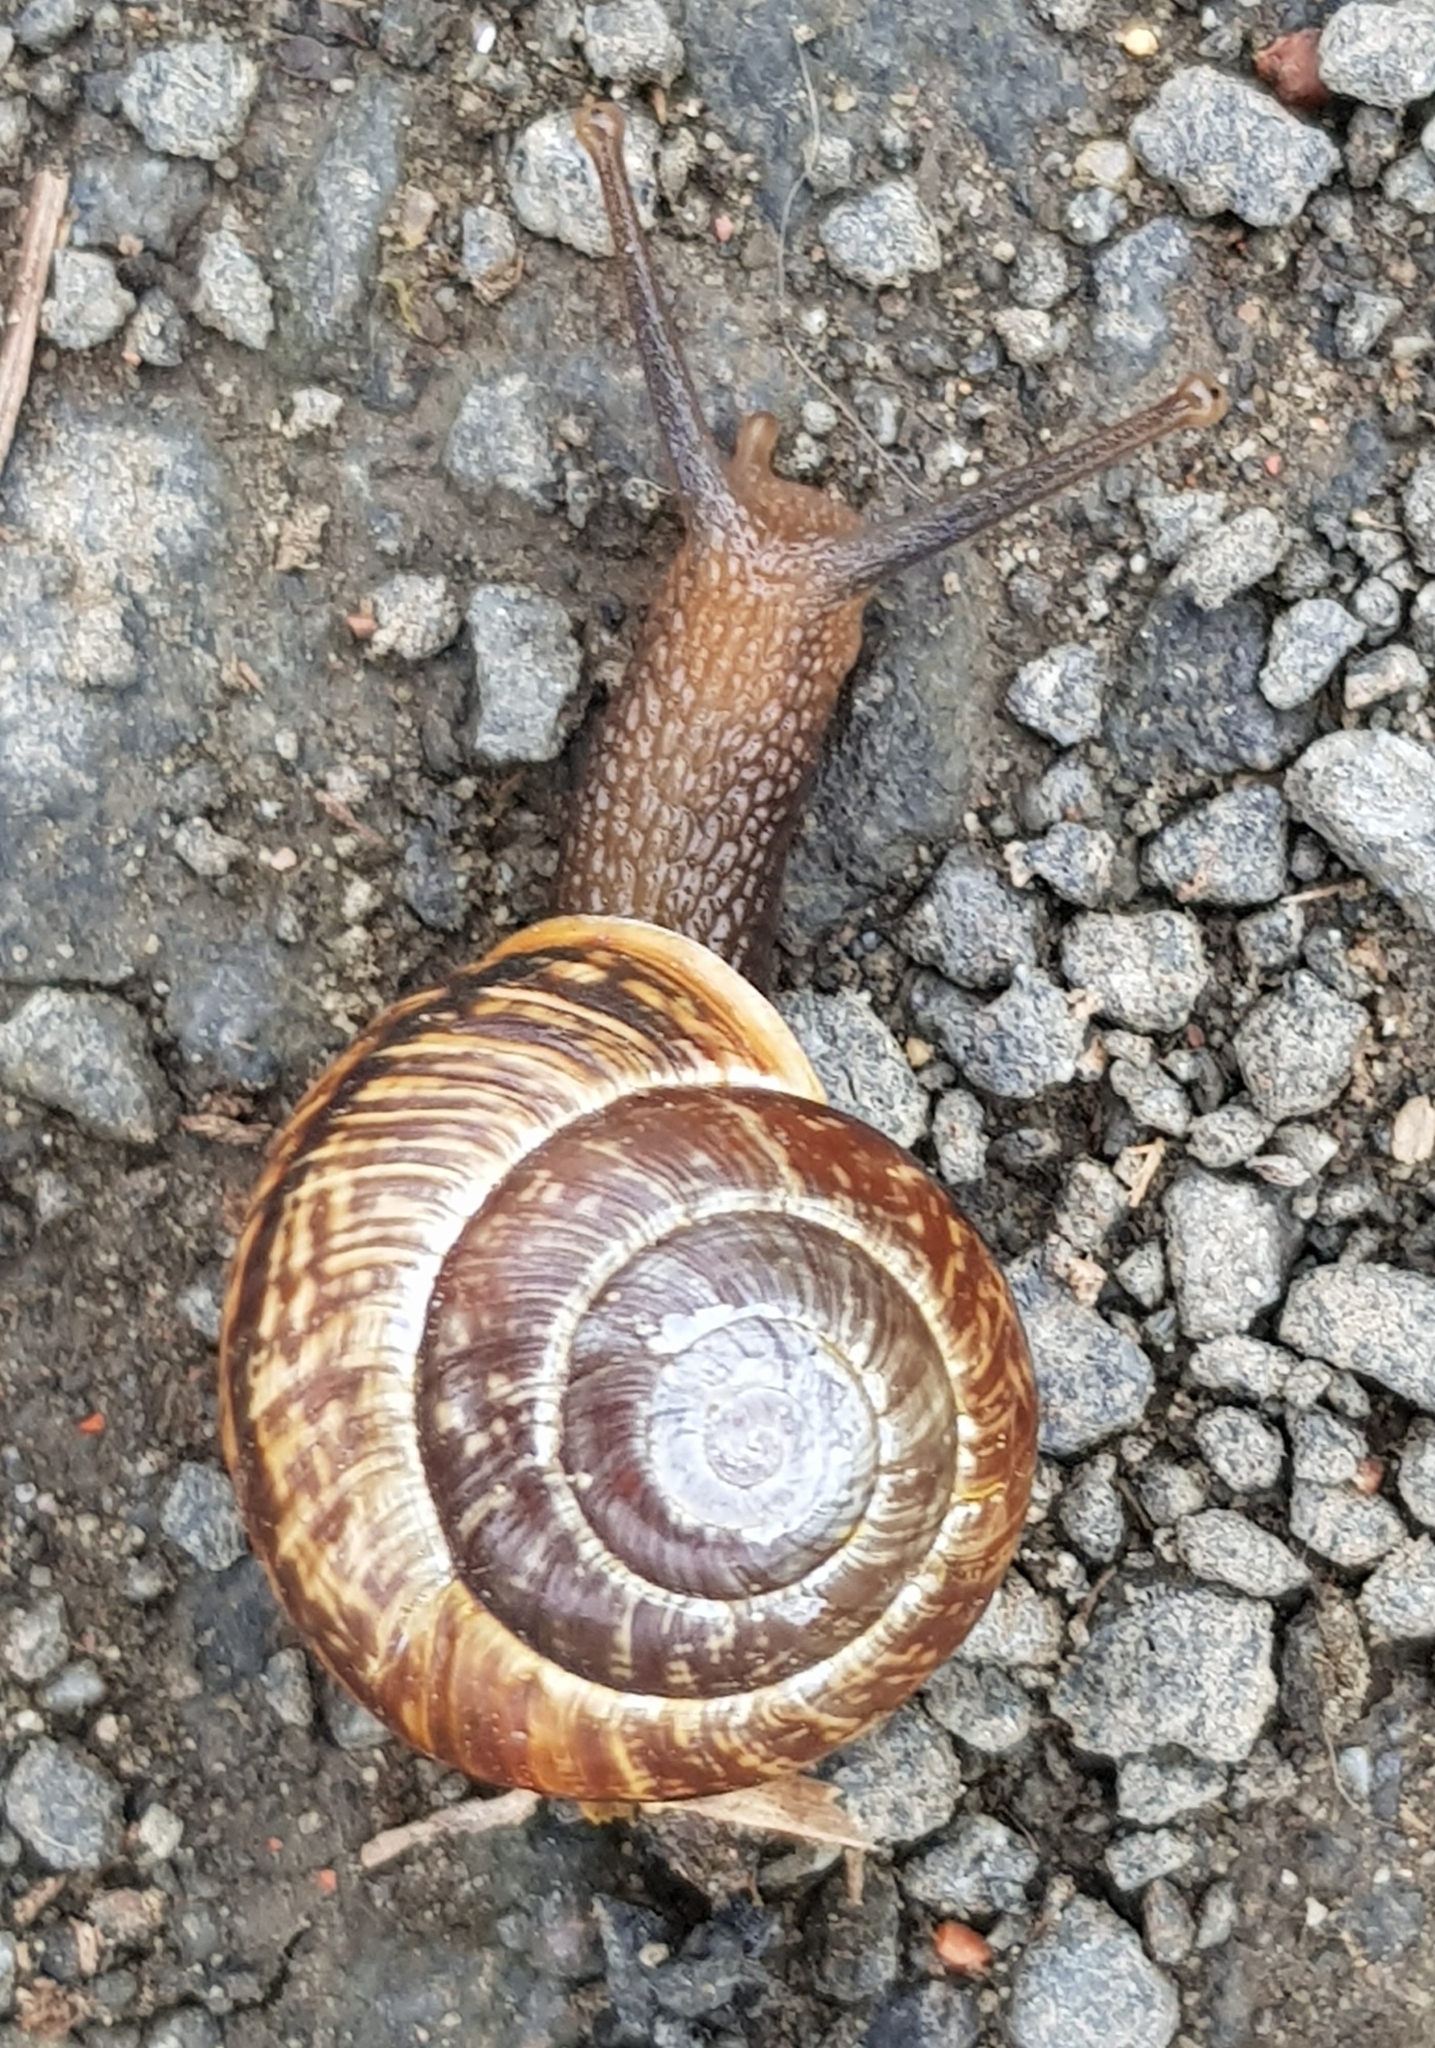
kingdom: Animalia
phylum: Mollusca
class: Gastropoda
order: Stylommatophora
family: Helicidae
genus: Arianta
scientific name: Arianta arbustorum
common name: Copse snail
